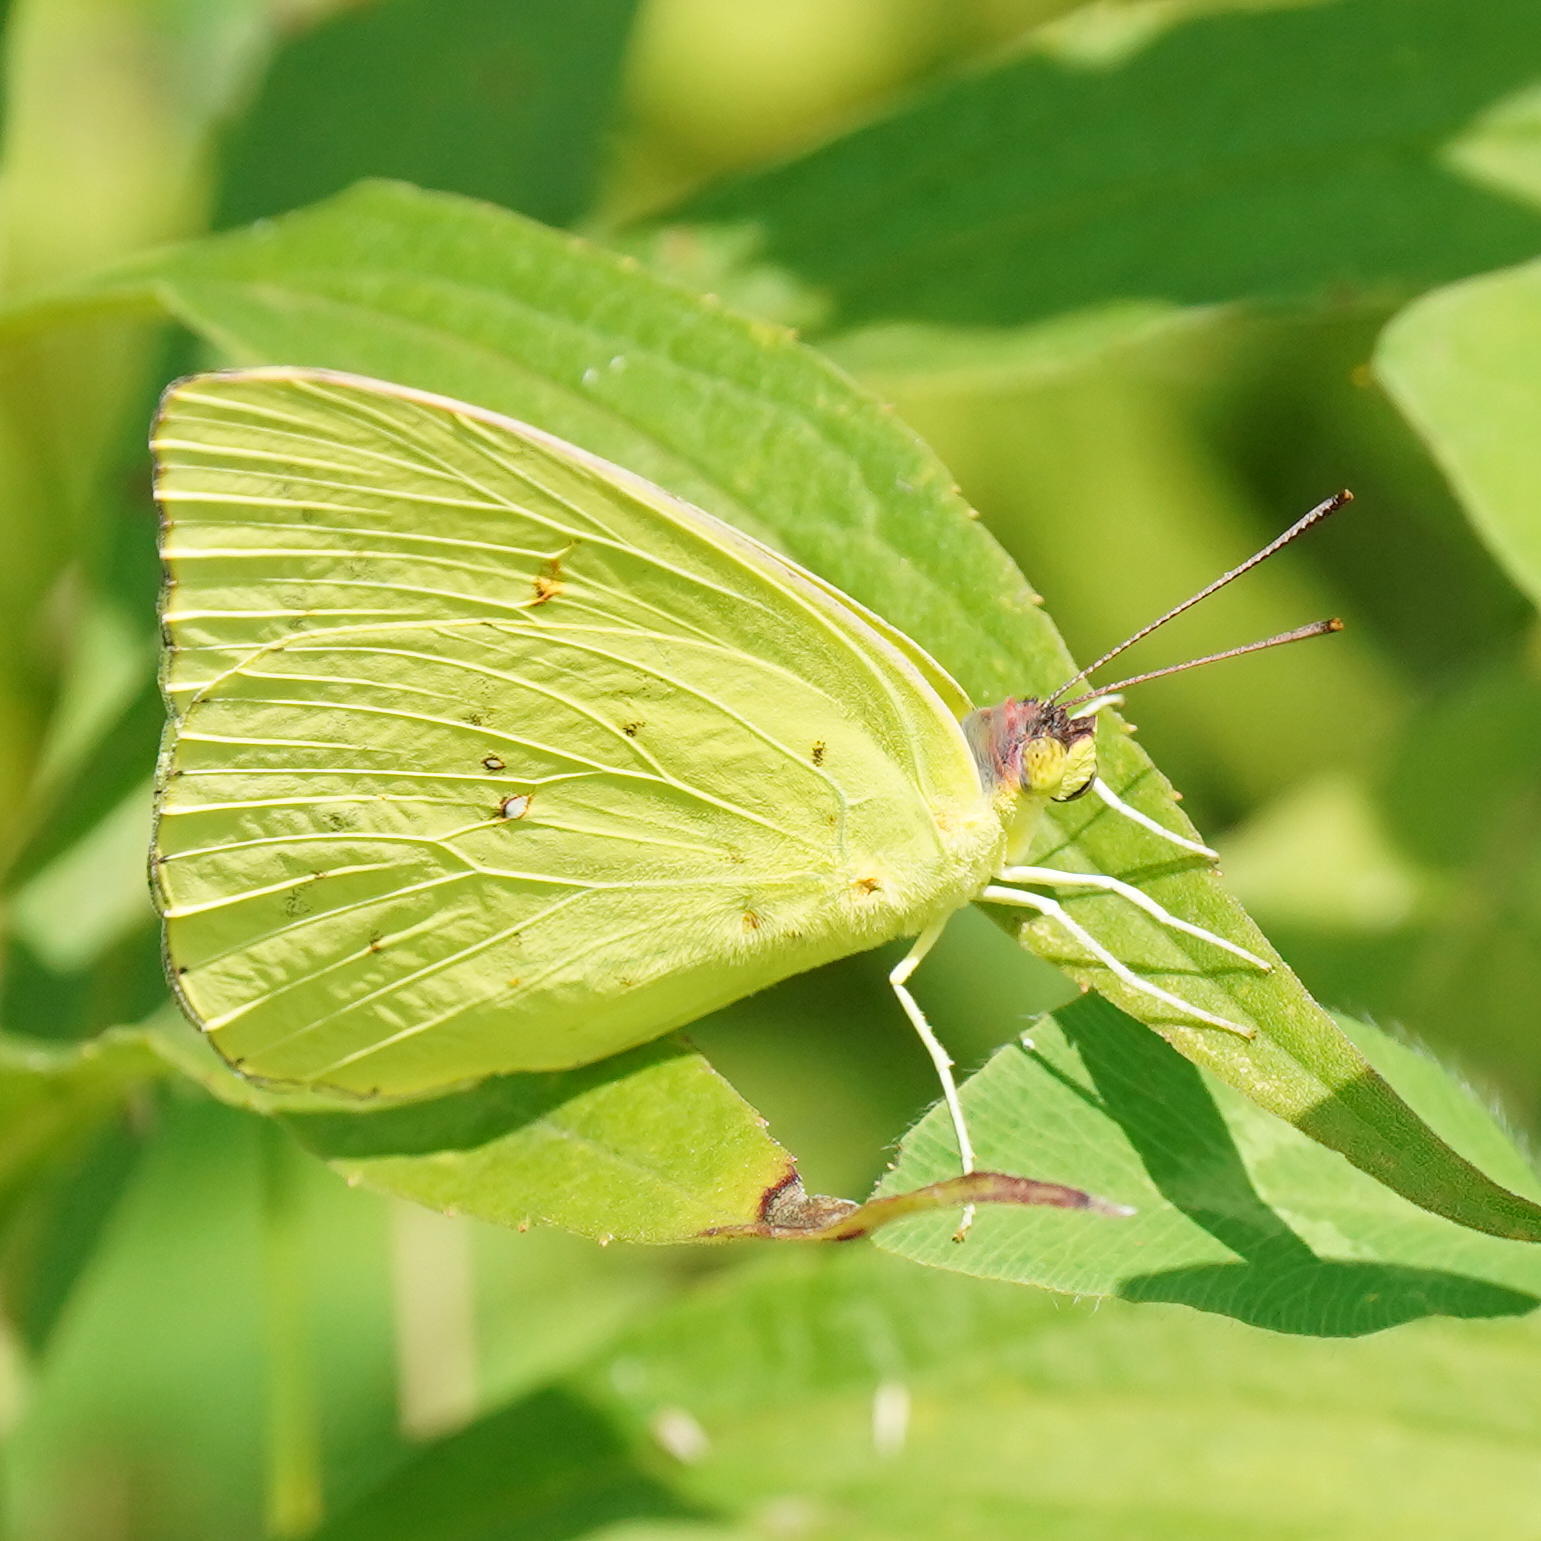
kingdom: Animalia
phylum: Arthropoda
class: Insecta
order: Lepidoptera
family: Pieridae
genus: Phoebis
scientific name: Phoebis sennae
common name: Cloudless sulphur
